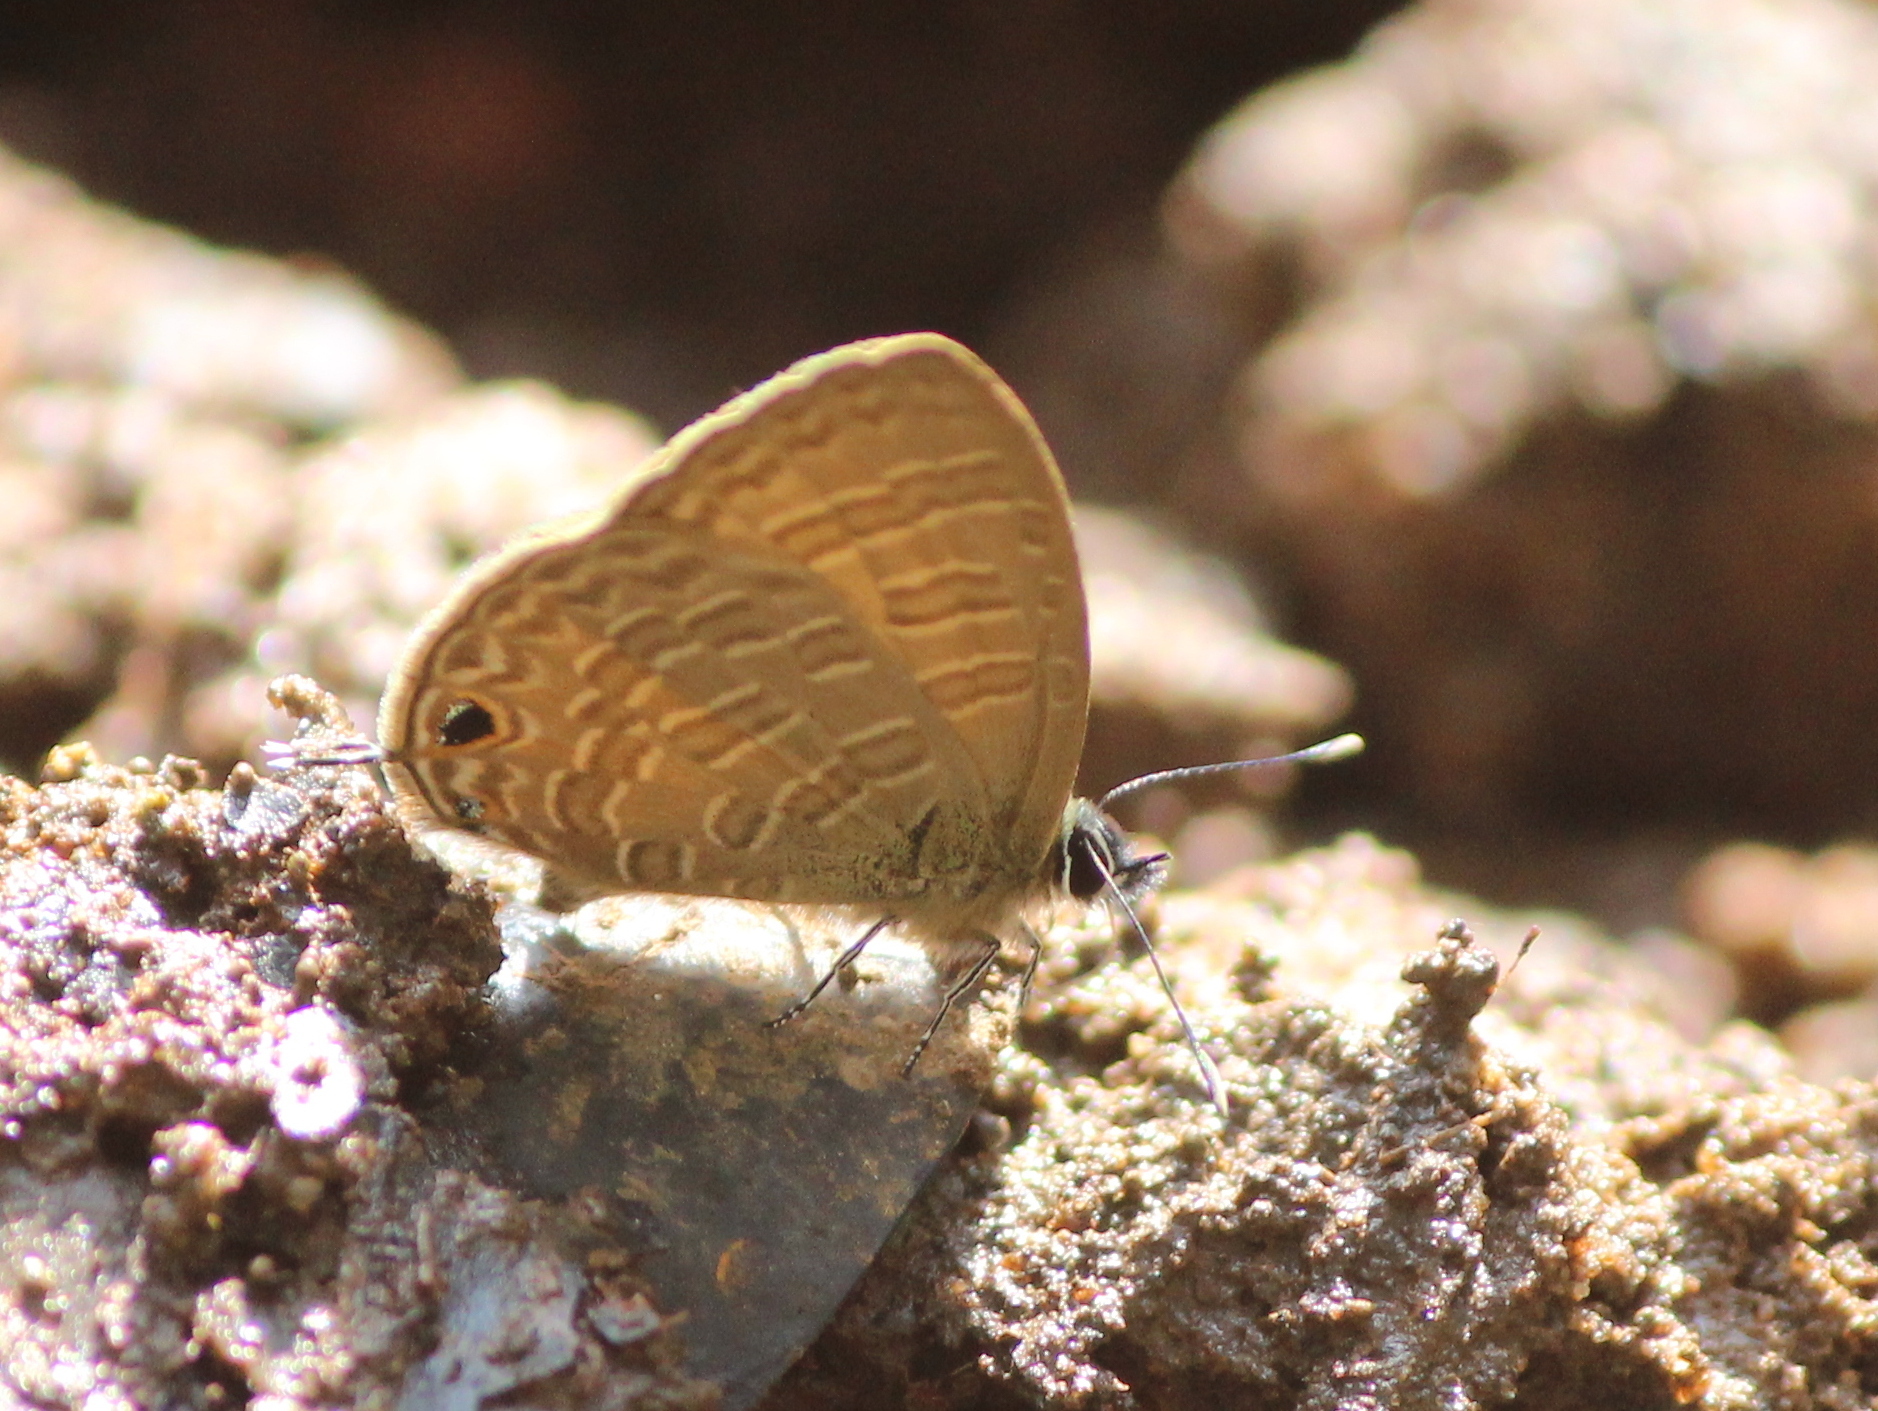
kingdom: Animalia
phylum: Arthropoda
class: Insecta
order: Lepidoptera
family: Lycaenidae
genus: Nacaduba
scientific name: Nacaduba kurava
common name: Transparent 6-line blue
